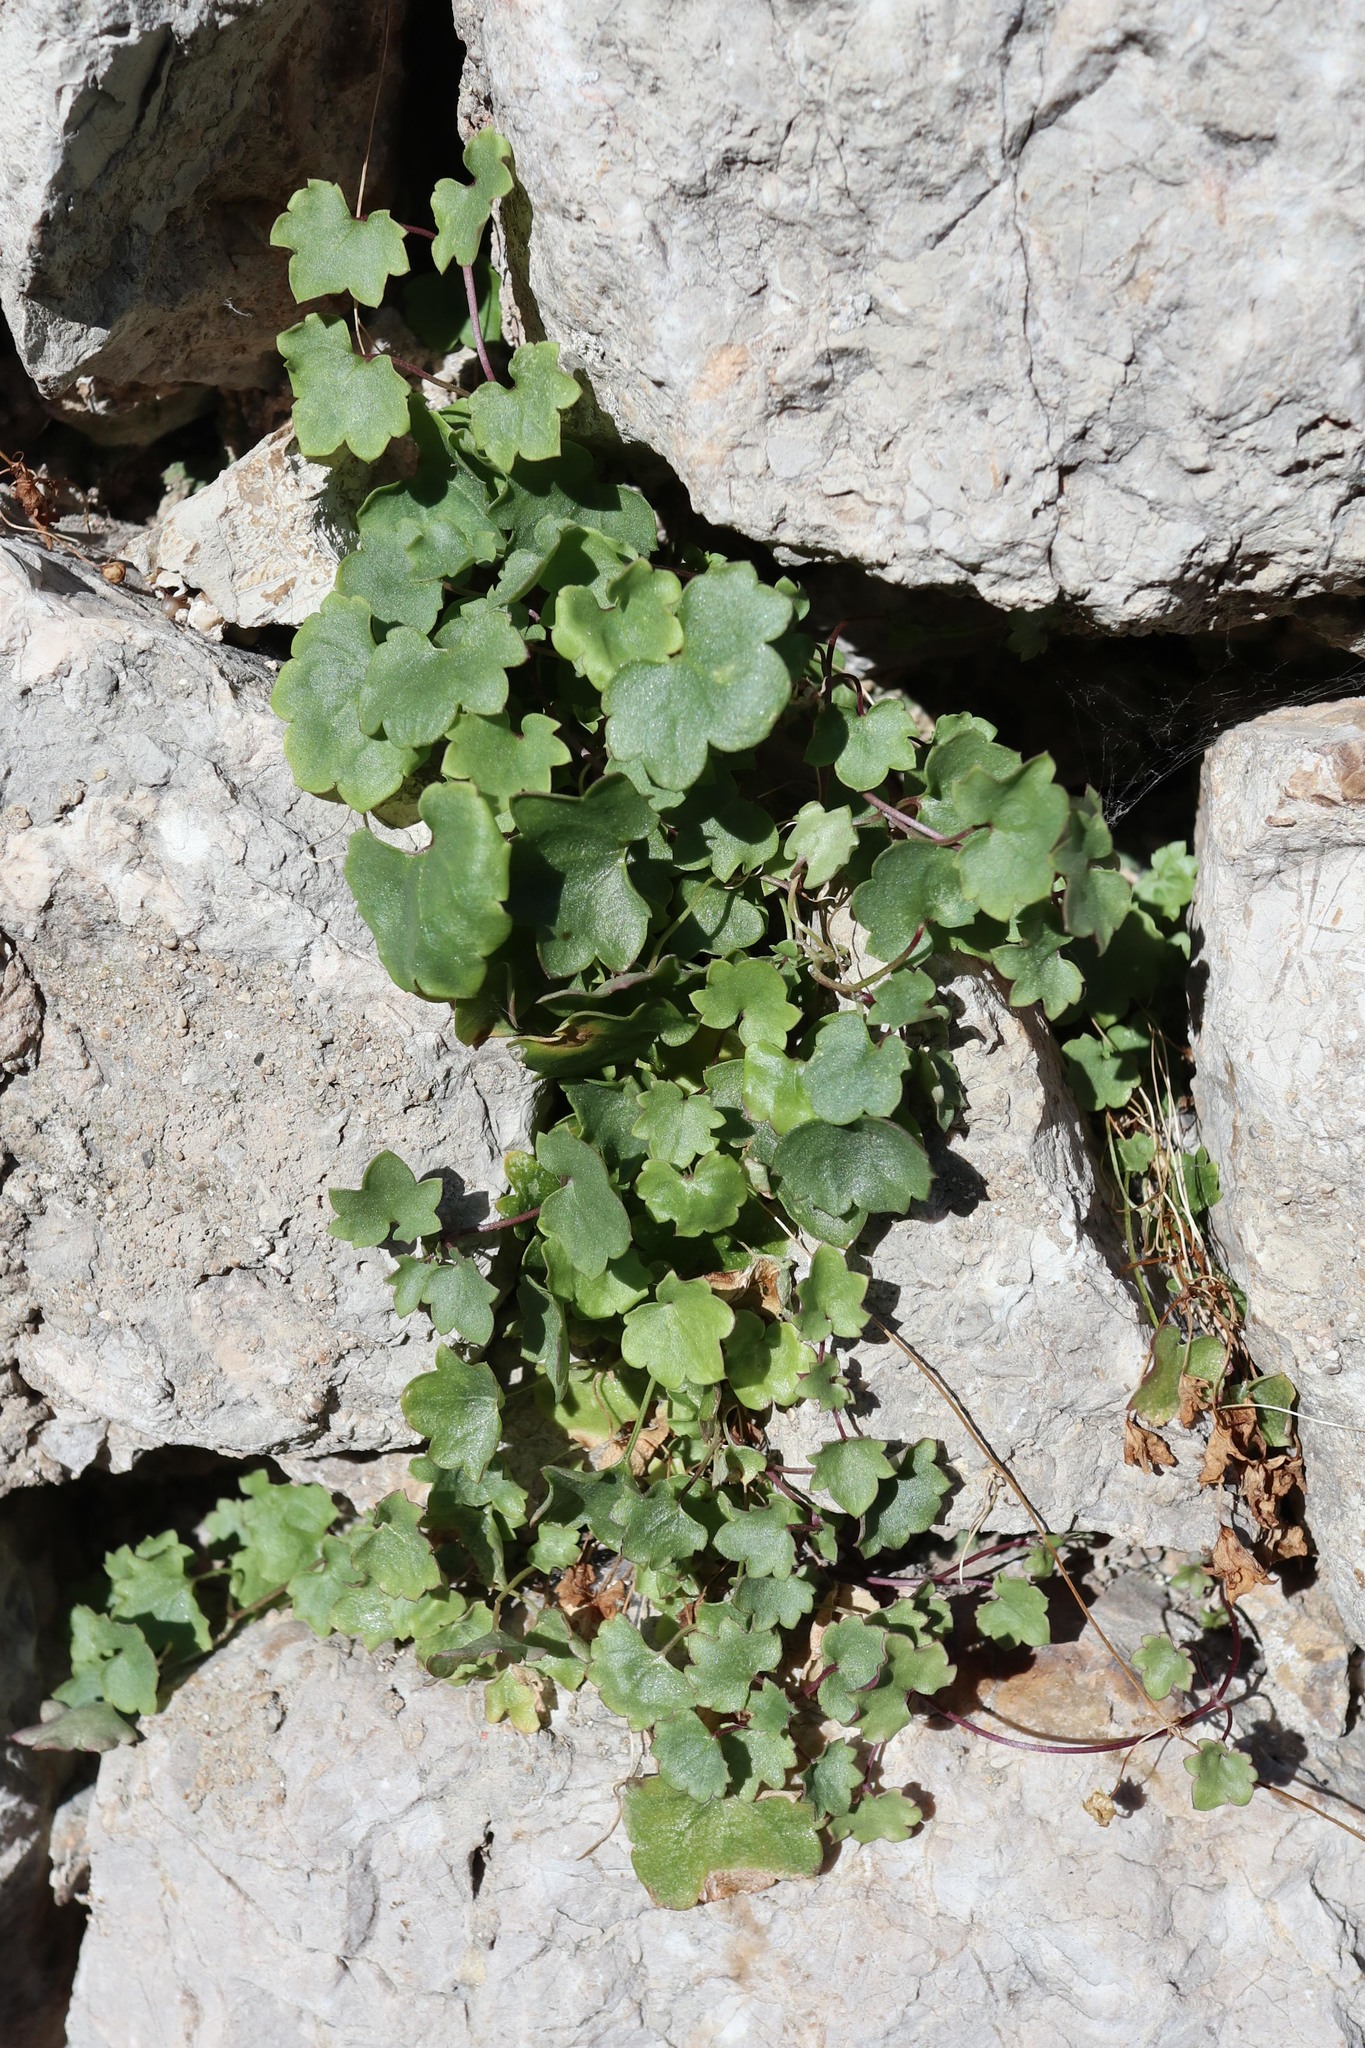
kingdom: Plantae
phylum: Tracheophyta
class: Magnoliopsida
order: Lamiales
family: Plantaginaceae
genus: Cymbalaria
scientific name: Cymbalaria muralis
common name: Ivy-leaved toadflax
